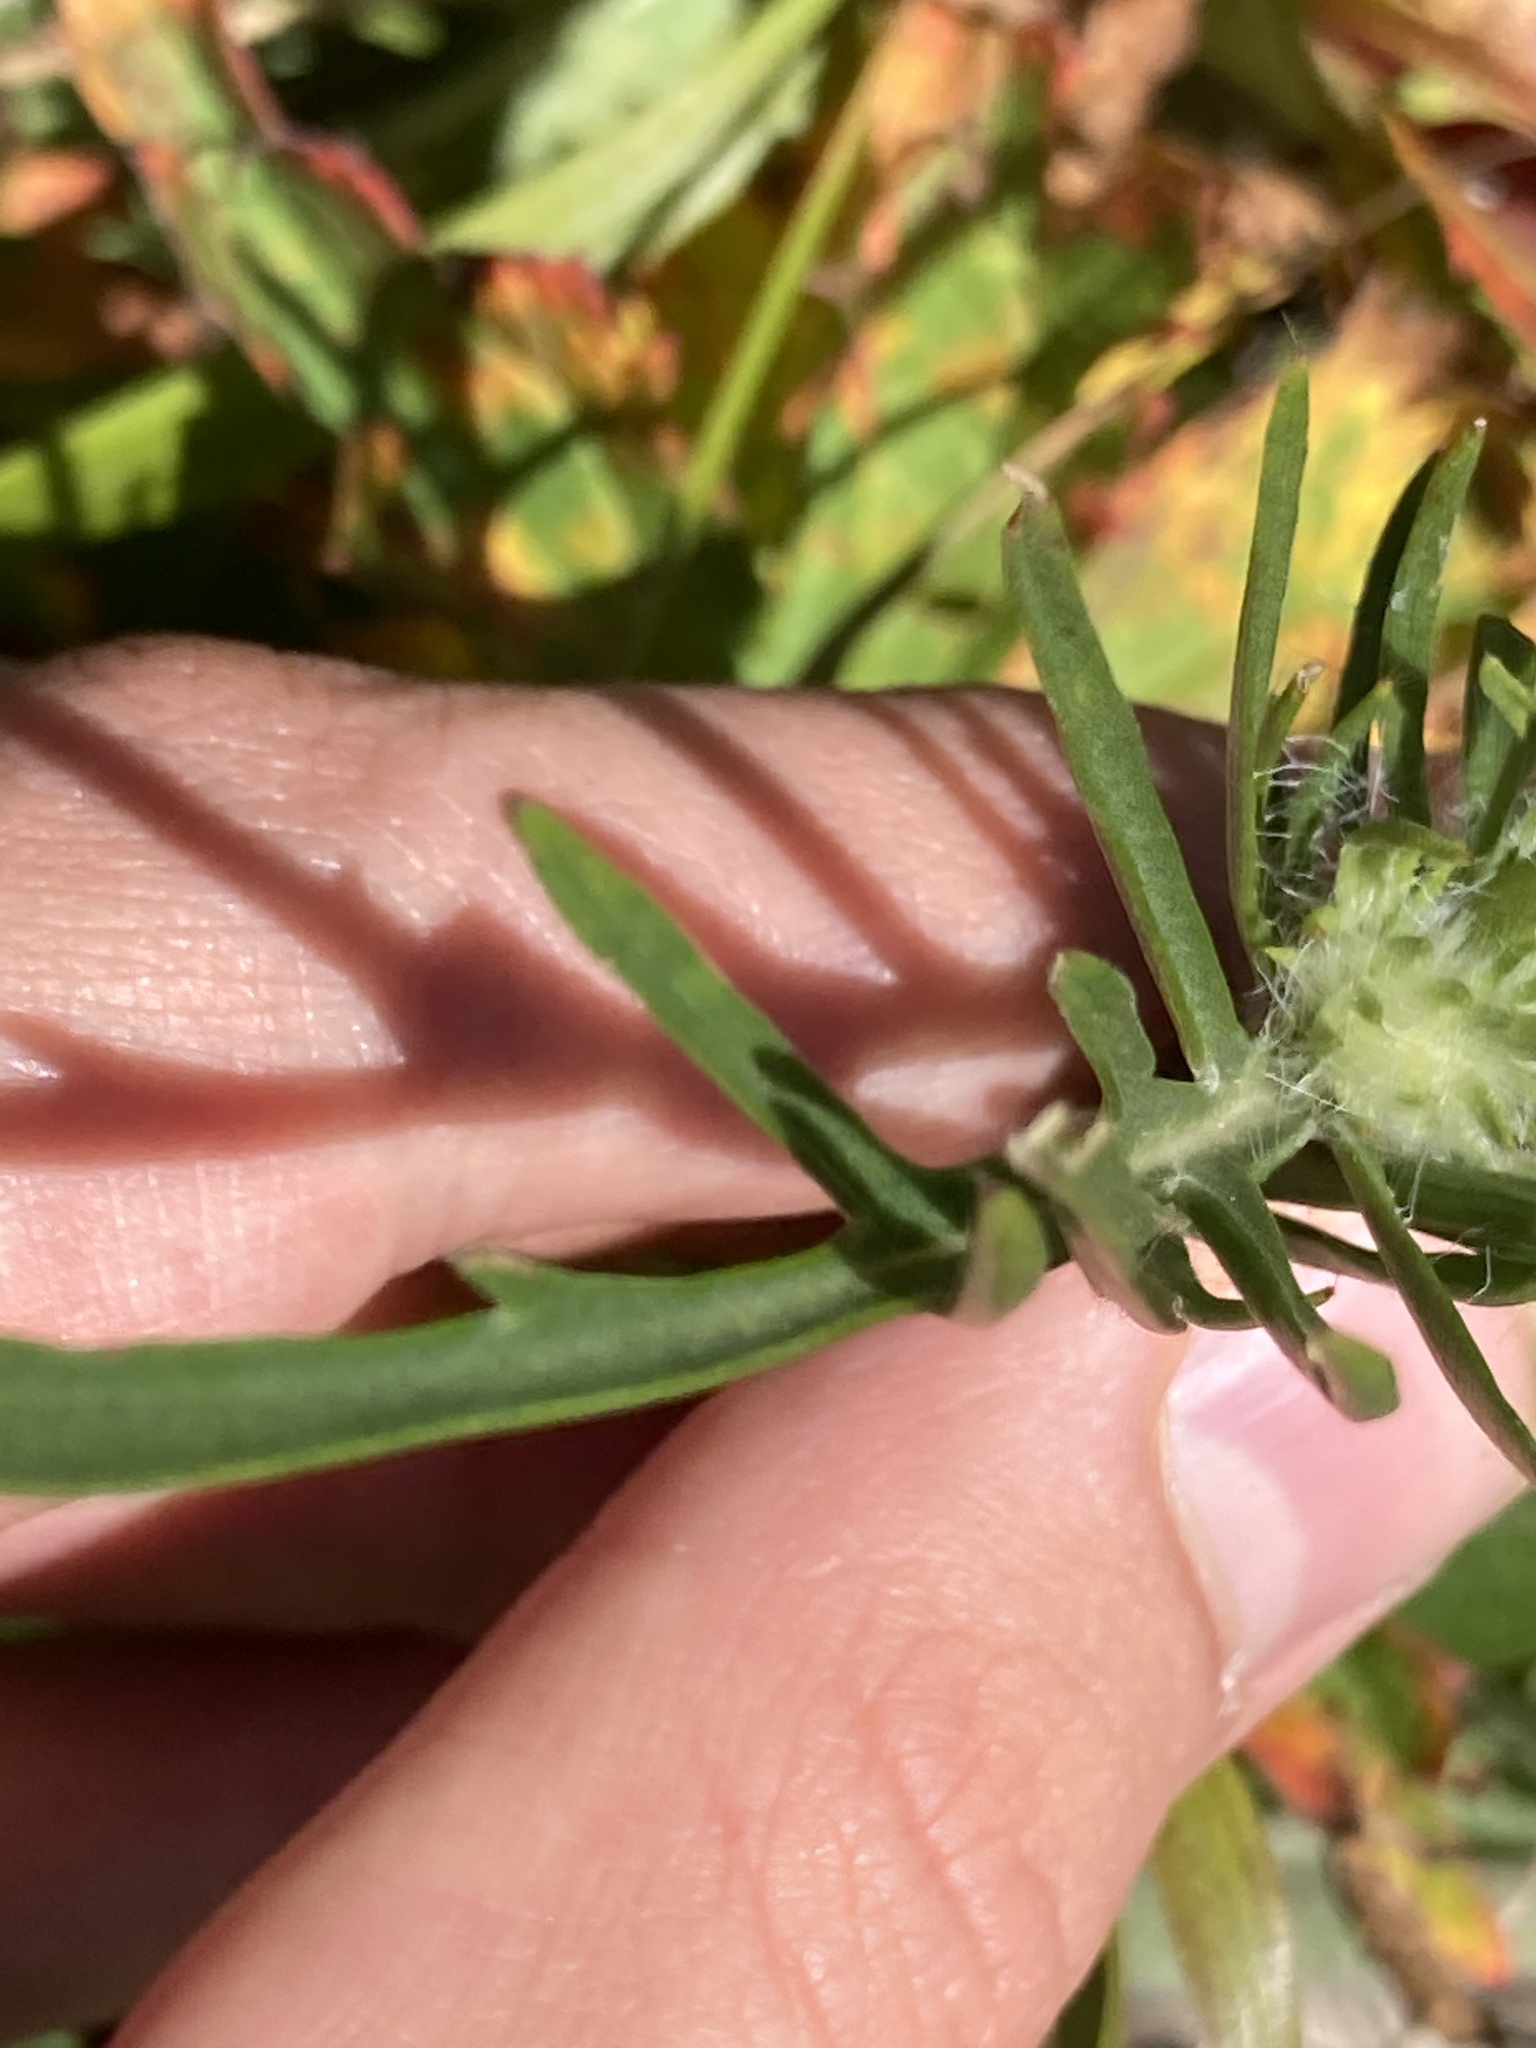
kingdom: Plantae
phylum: Tracheophyta
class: Magnoliopsida
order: Dipsacales
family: Caprifoliaceae
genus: Lomelosia
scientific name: Lomelosia caucasica
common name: Pincushion-flower
